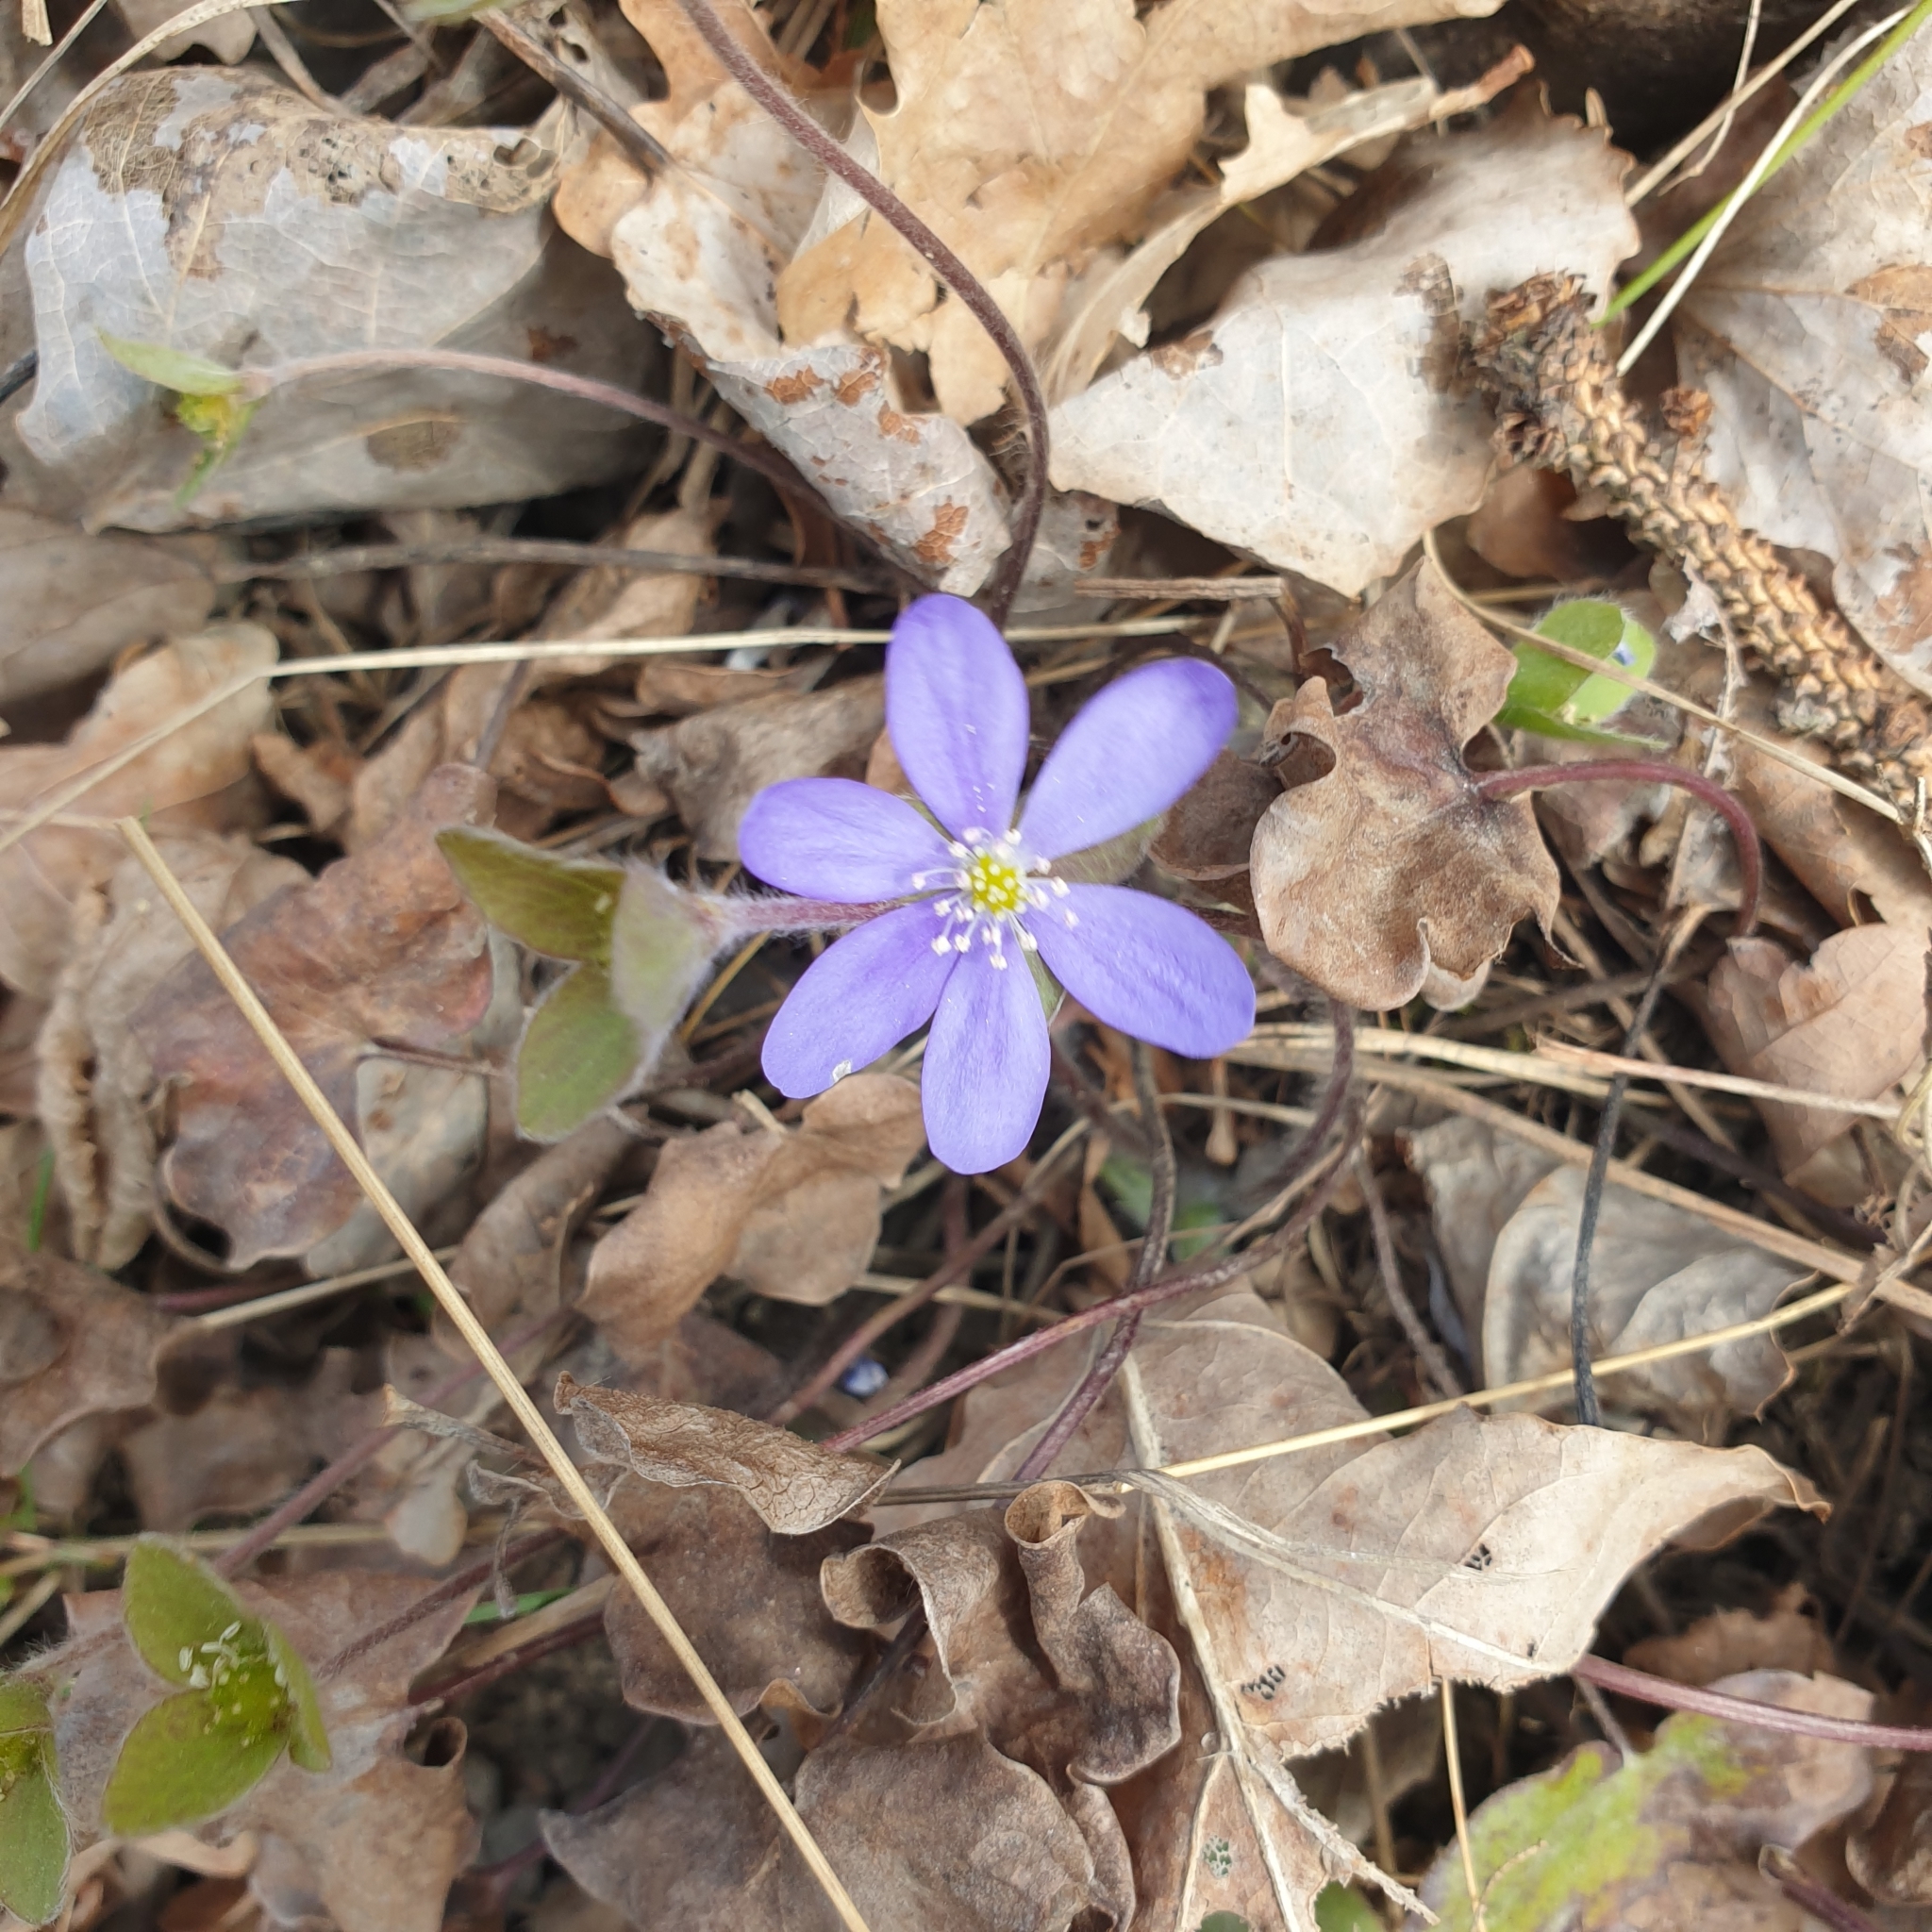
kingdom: Plantae
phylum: Tracheophyta
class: Magnoliopsida
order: Ranunculales
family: Ranunculaceae
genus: Hepatica
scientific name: Hepatica nobilis
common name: Liverleaf
